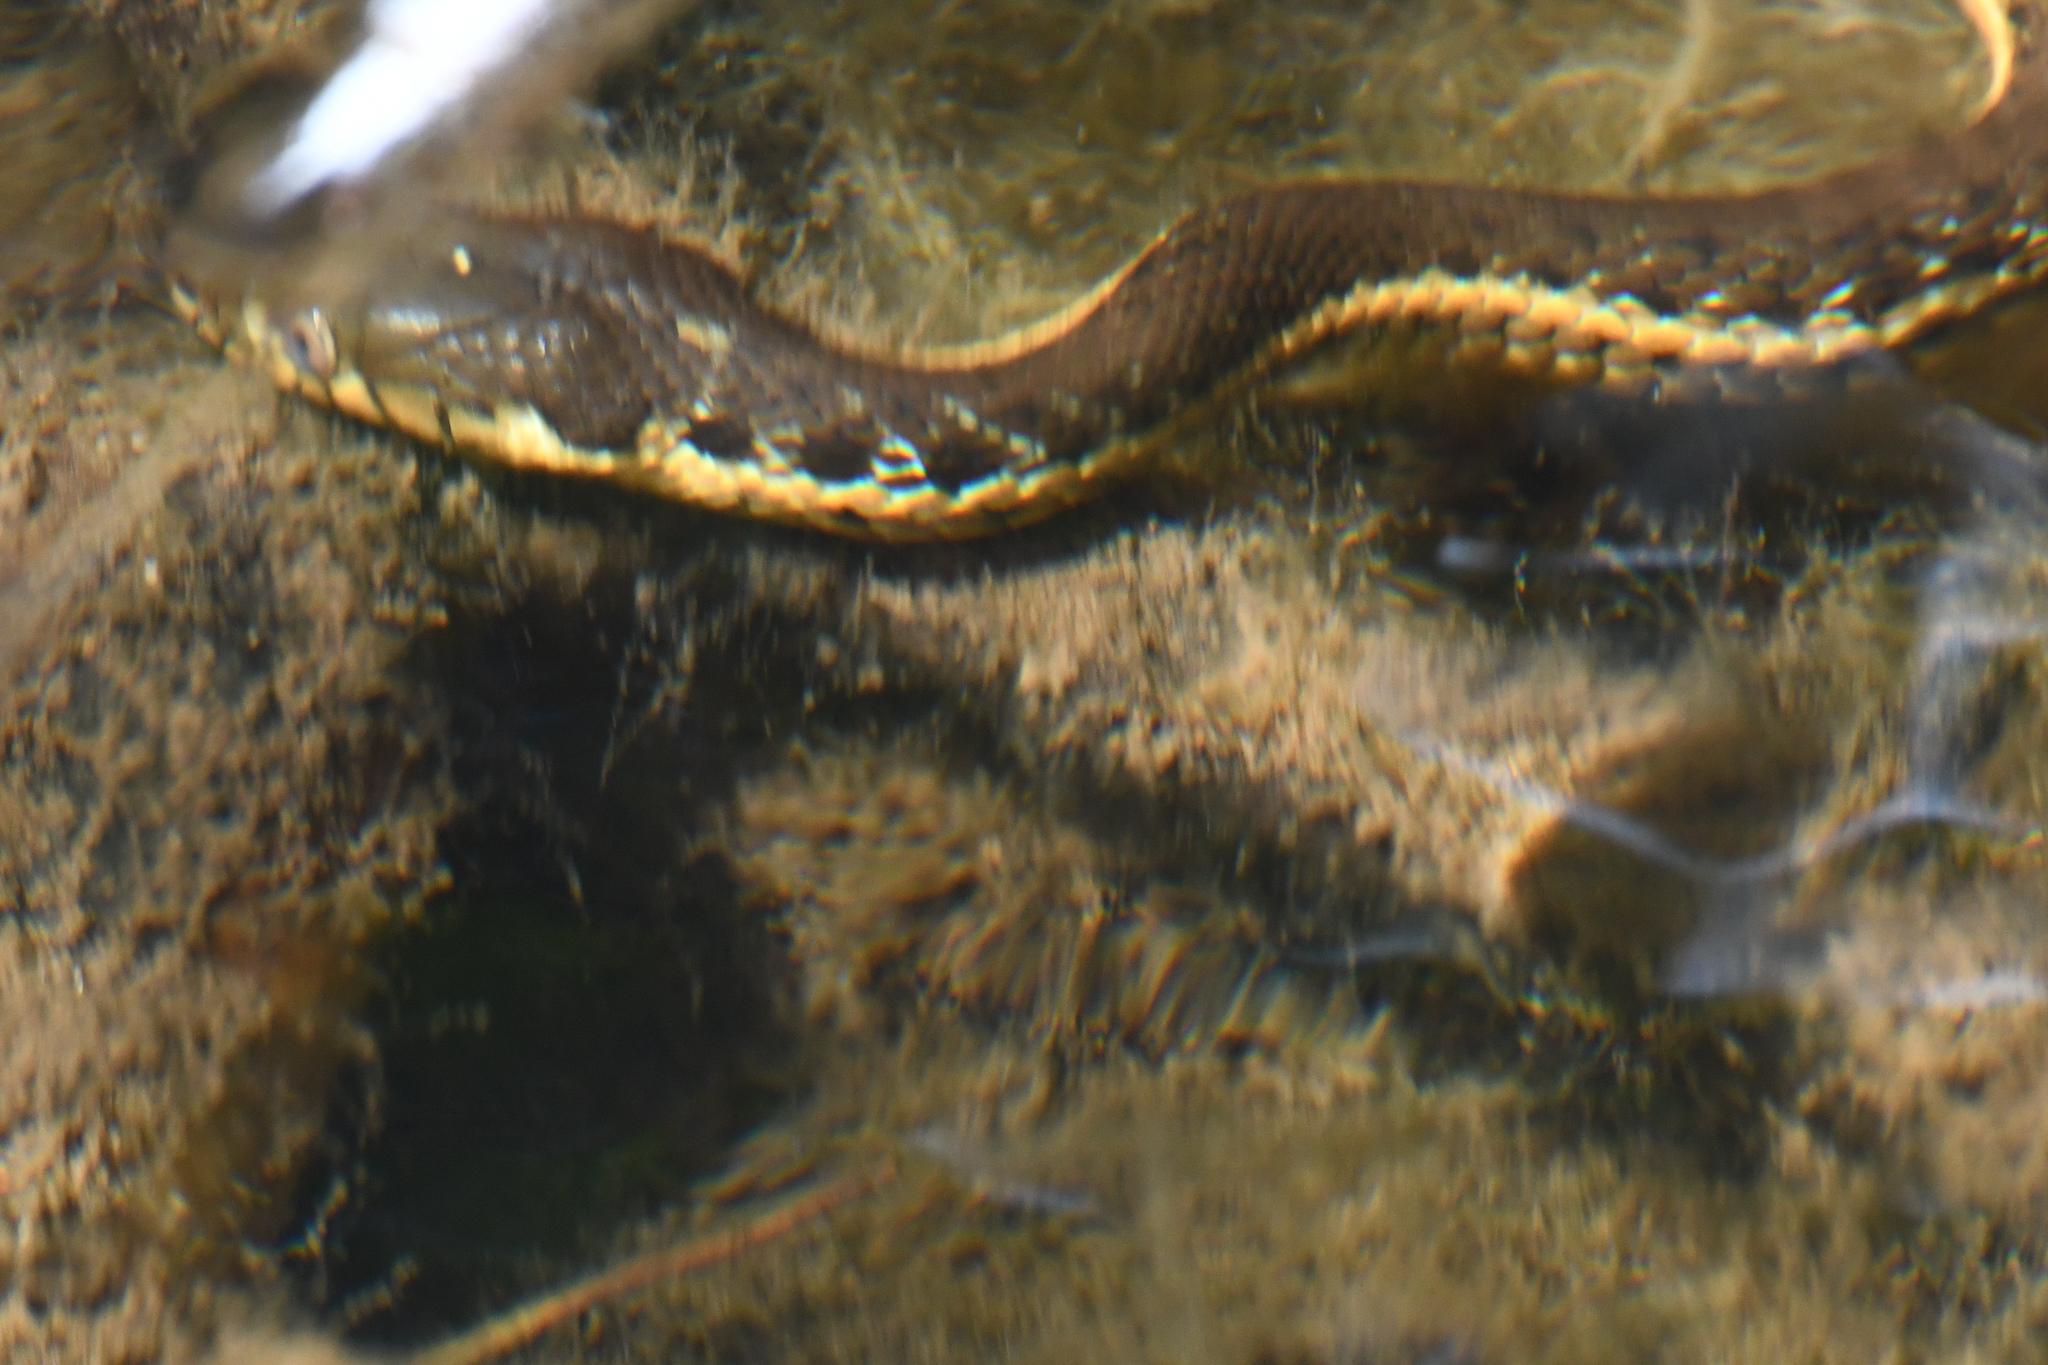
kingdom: Animalia
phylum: Chordata
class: Squamata
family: Colubridae
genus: Thamnophis
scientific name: Thamnophis hammondii
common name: Two-striped garter snake
